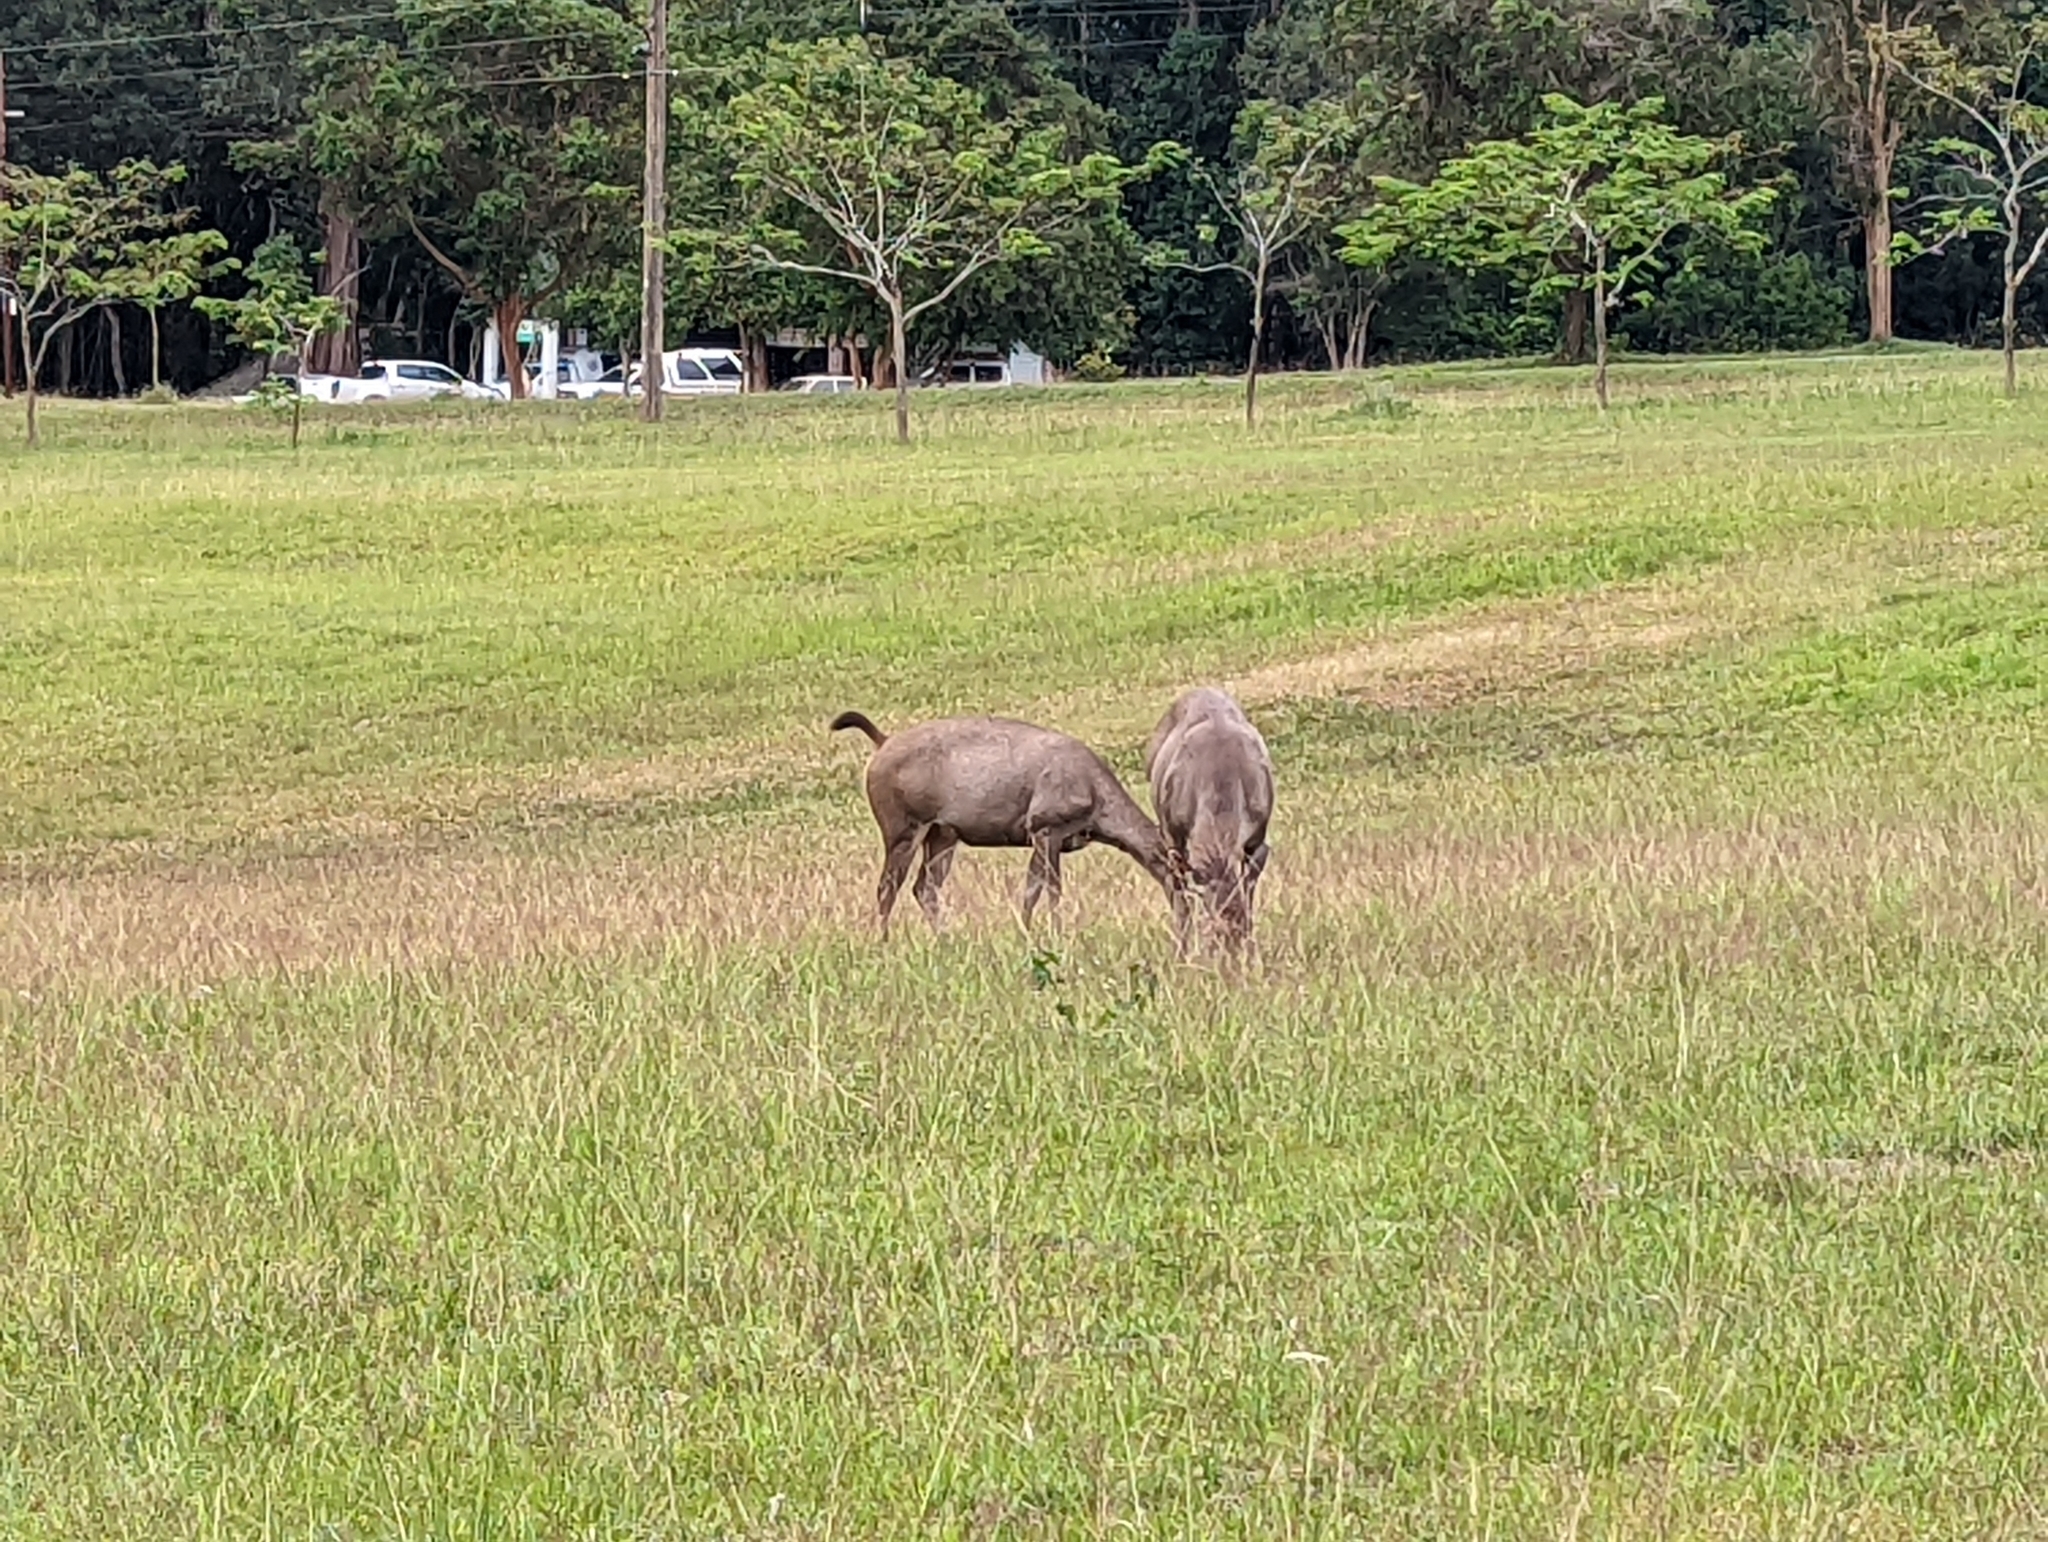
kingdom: Animalia
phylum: Chordata
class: Mammalia
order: Artiodactyla
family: Cervidae
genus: Rusa
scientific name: Rusa unicolor
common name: Sambar
